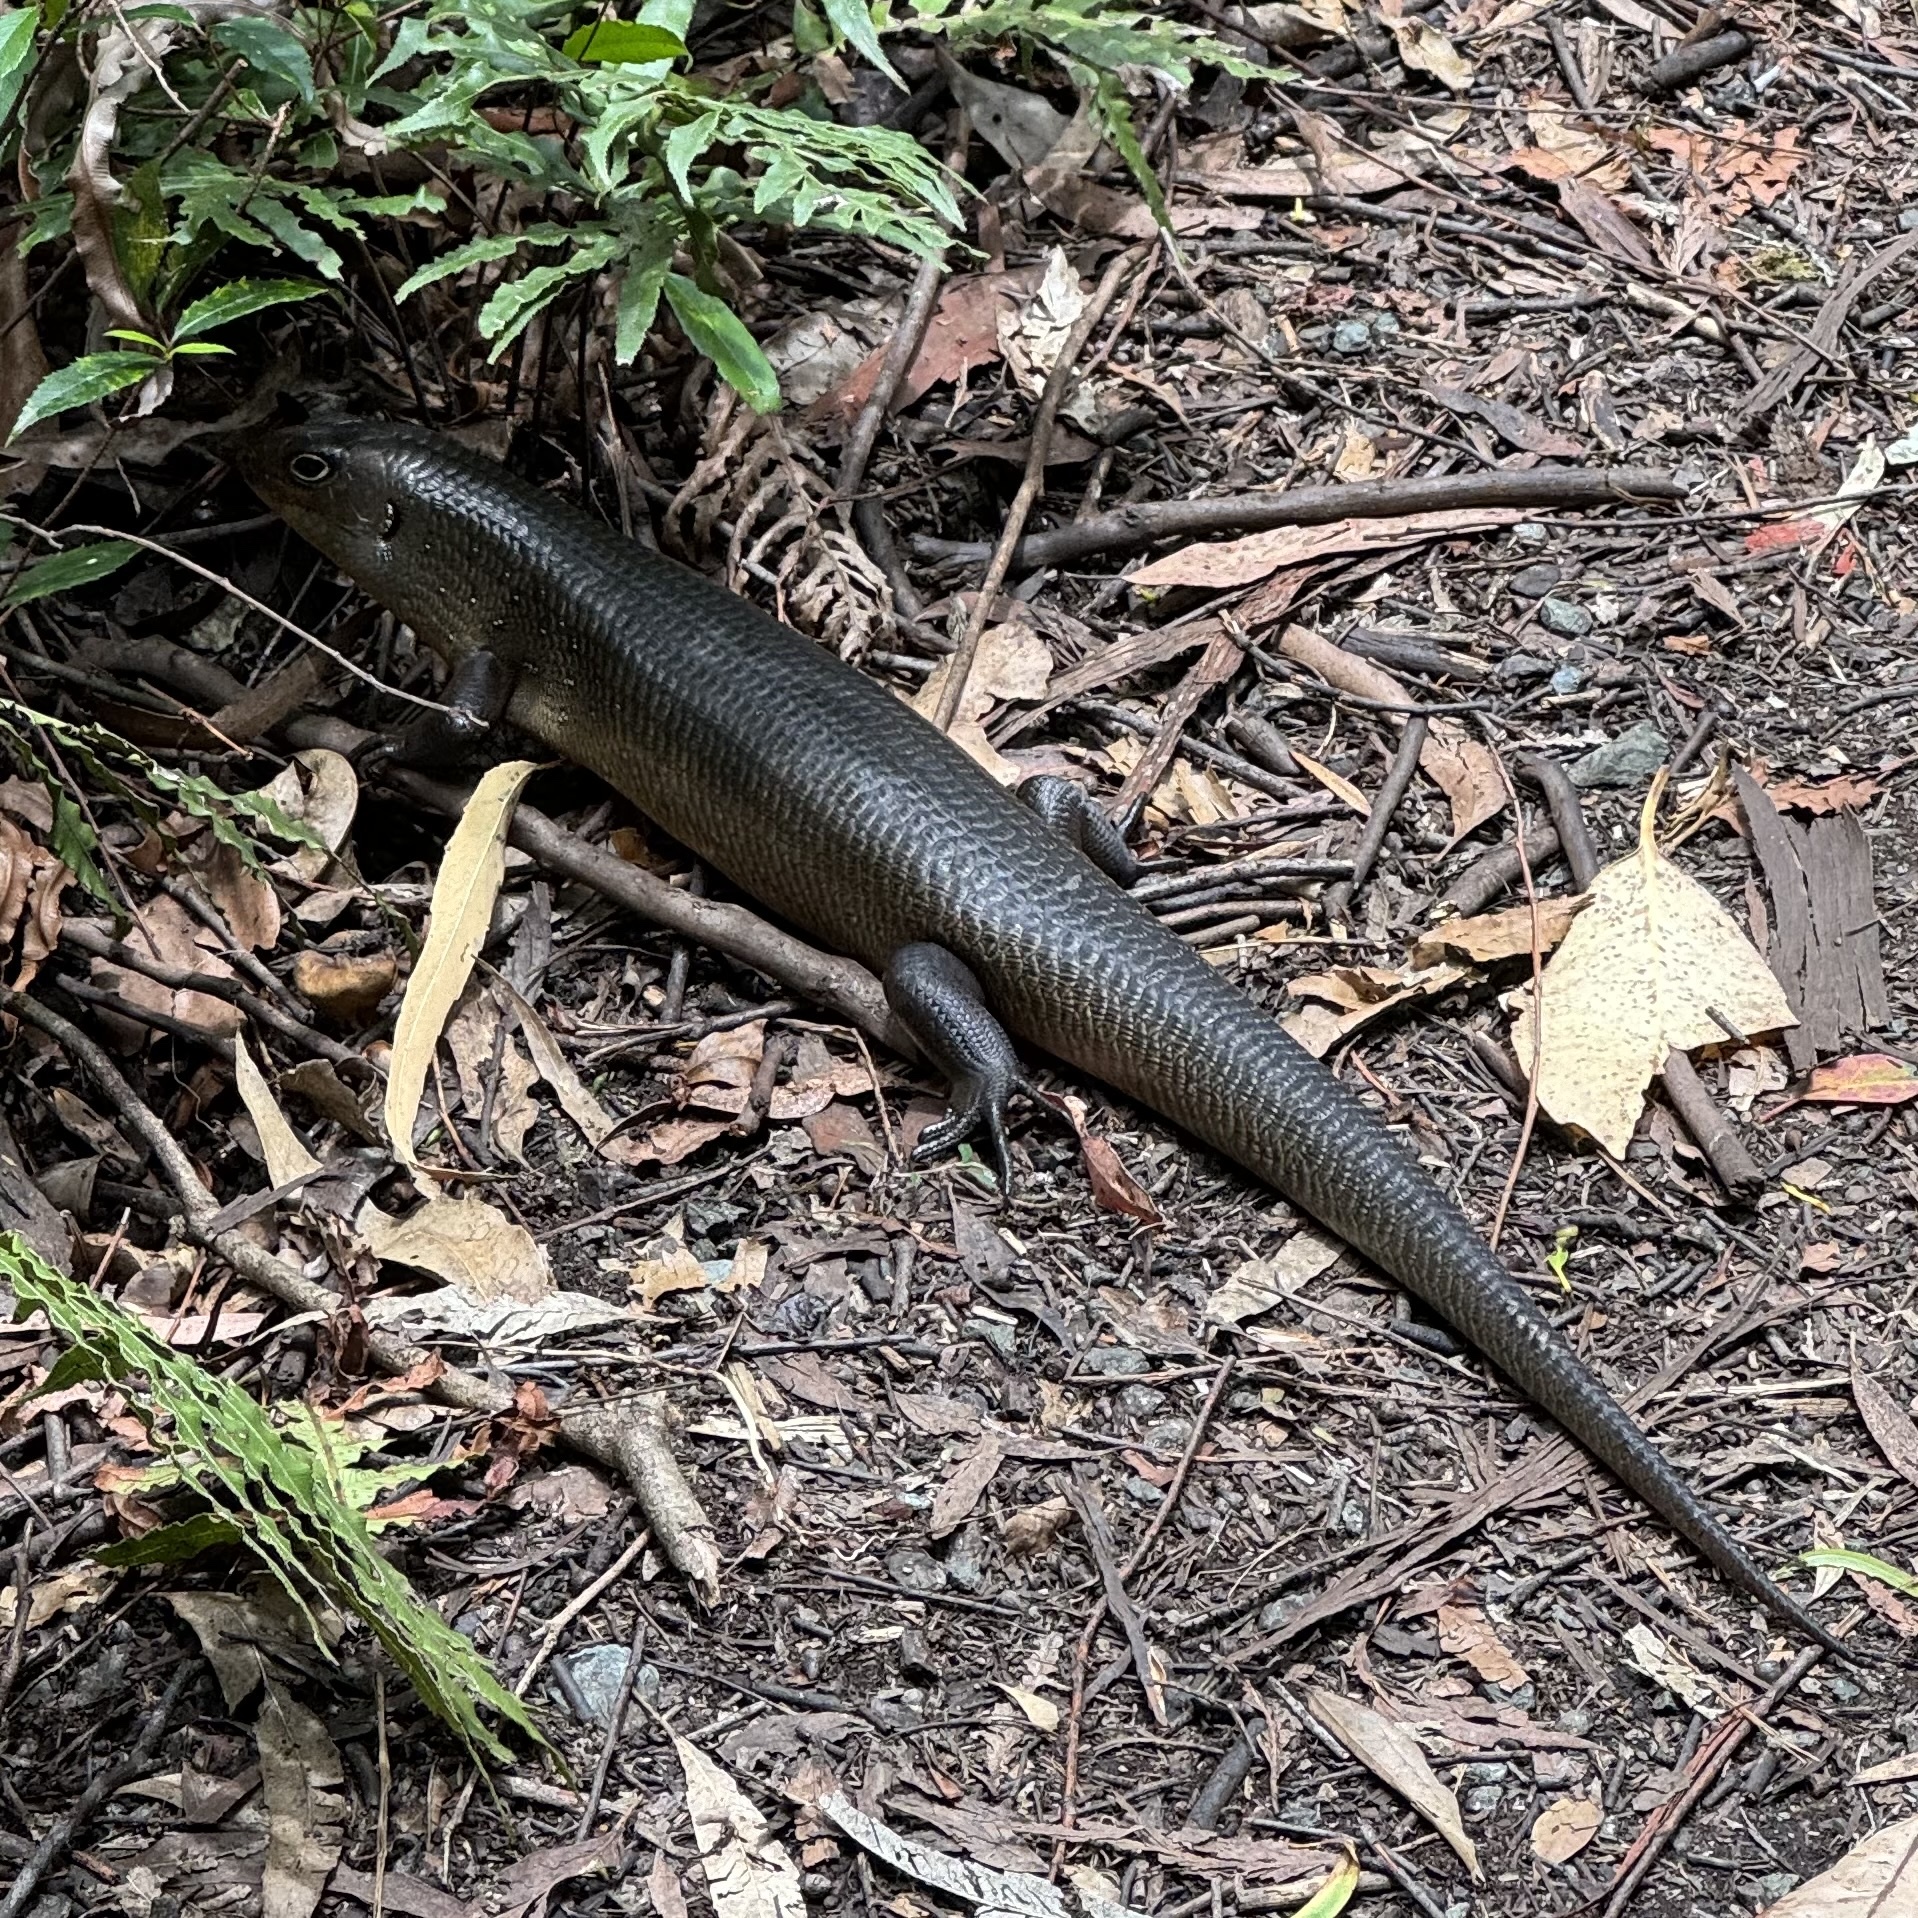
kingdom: Animalia
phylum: Chordata
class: Squamata
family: Scincidae
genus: Bellatorias
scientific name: Bellatorias major
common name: Land mullet
